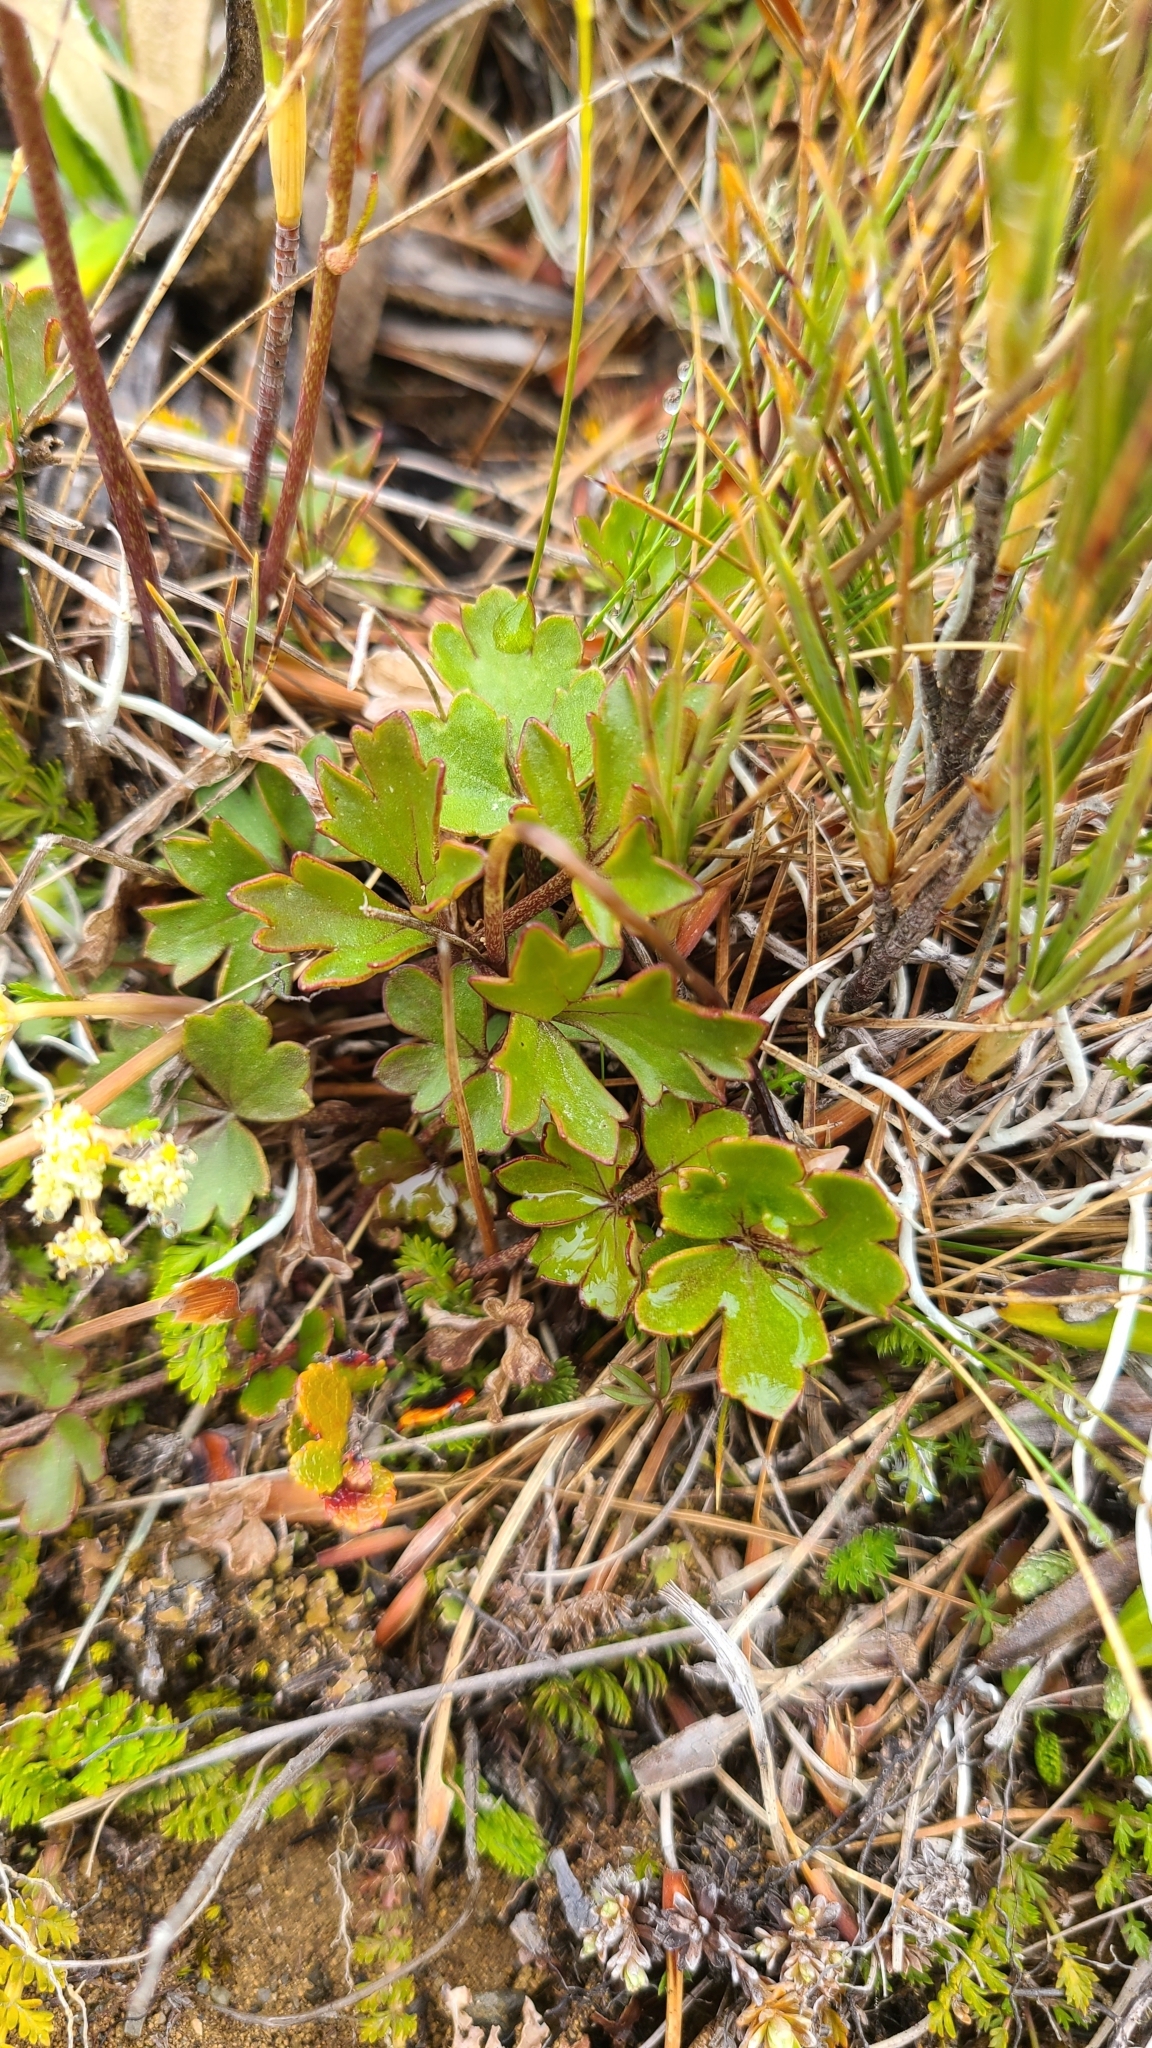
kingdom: Plantae
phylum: Tracheophyta
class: Magnoliopsida
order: Ranunculales
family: Ranunculaceae
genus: Ranunculus
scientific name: Ranunculus enysii
